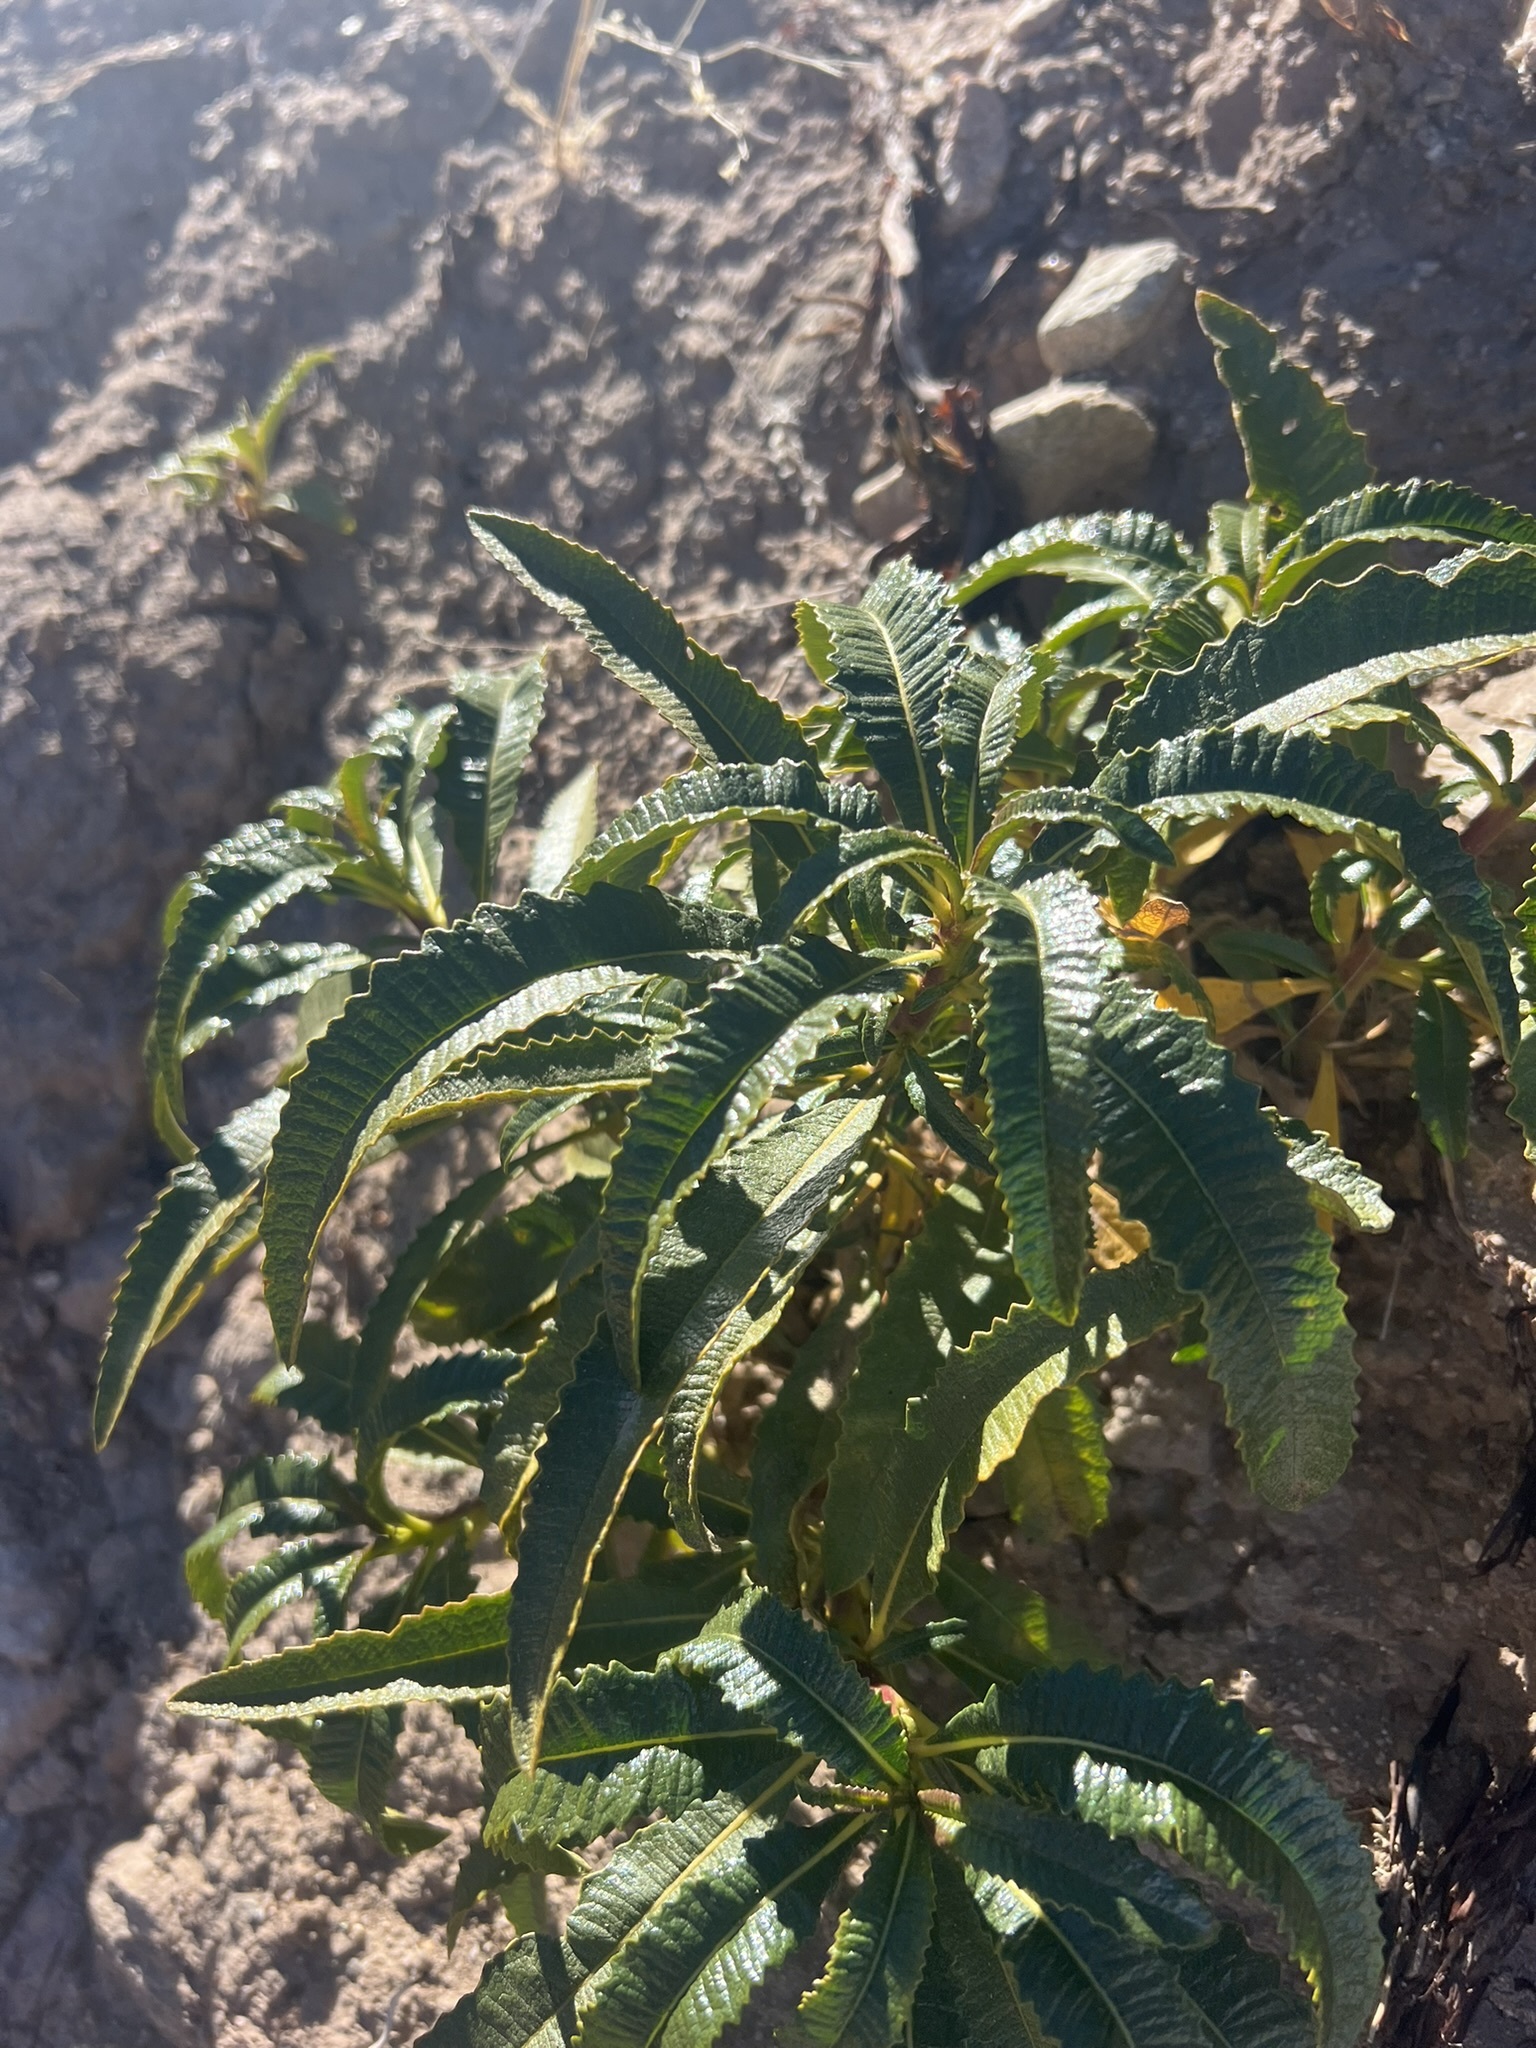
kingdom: Plantae
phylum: Tracheophyta
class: Magnoliopsida
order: Boraginales
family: Namaceae
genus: Eriodictyon
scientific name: Eriodictyon trichocalyx
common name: Hairy yerba-santa
